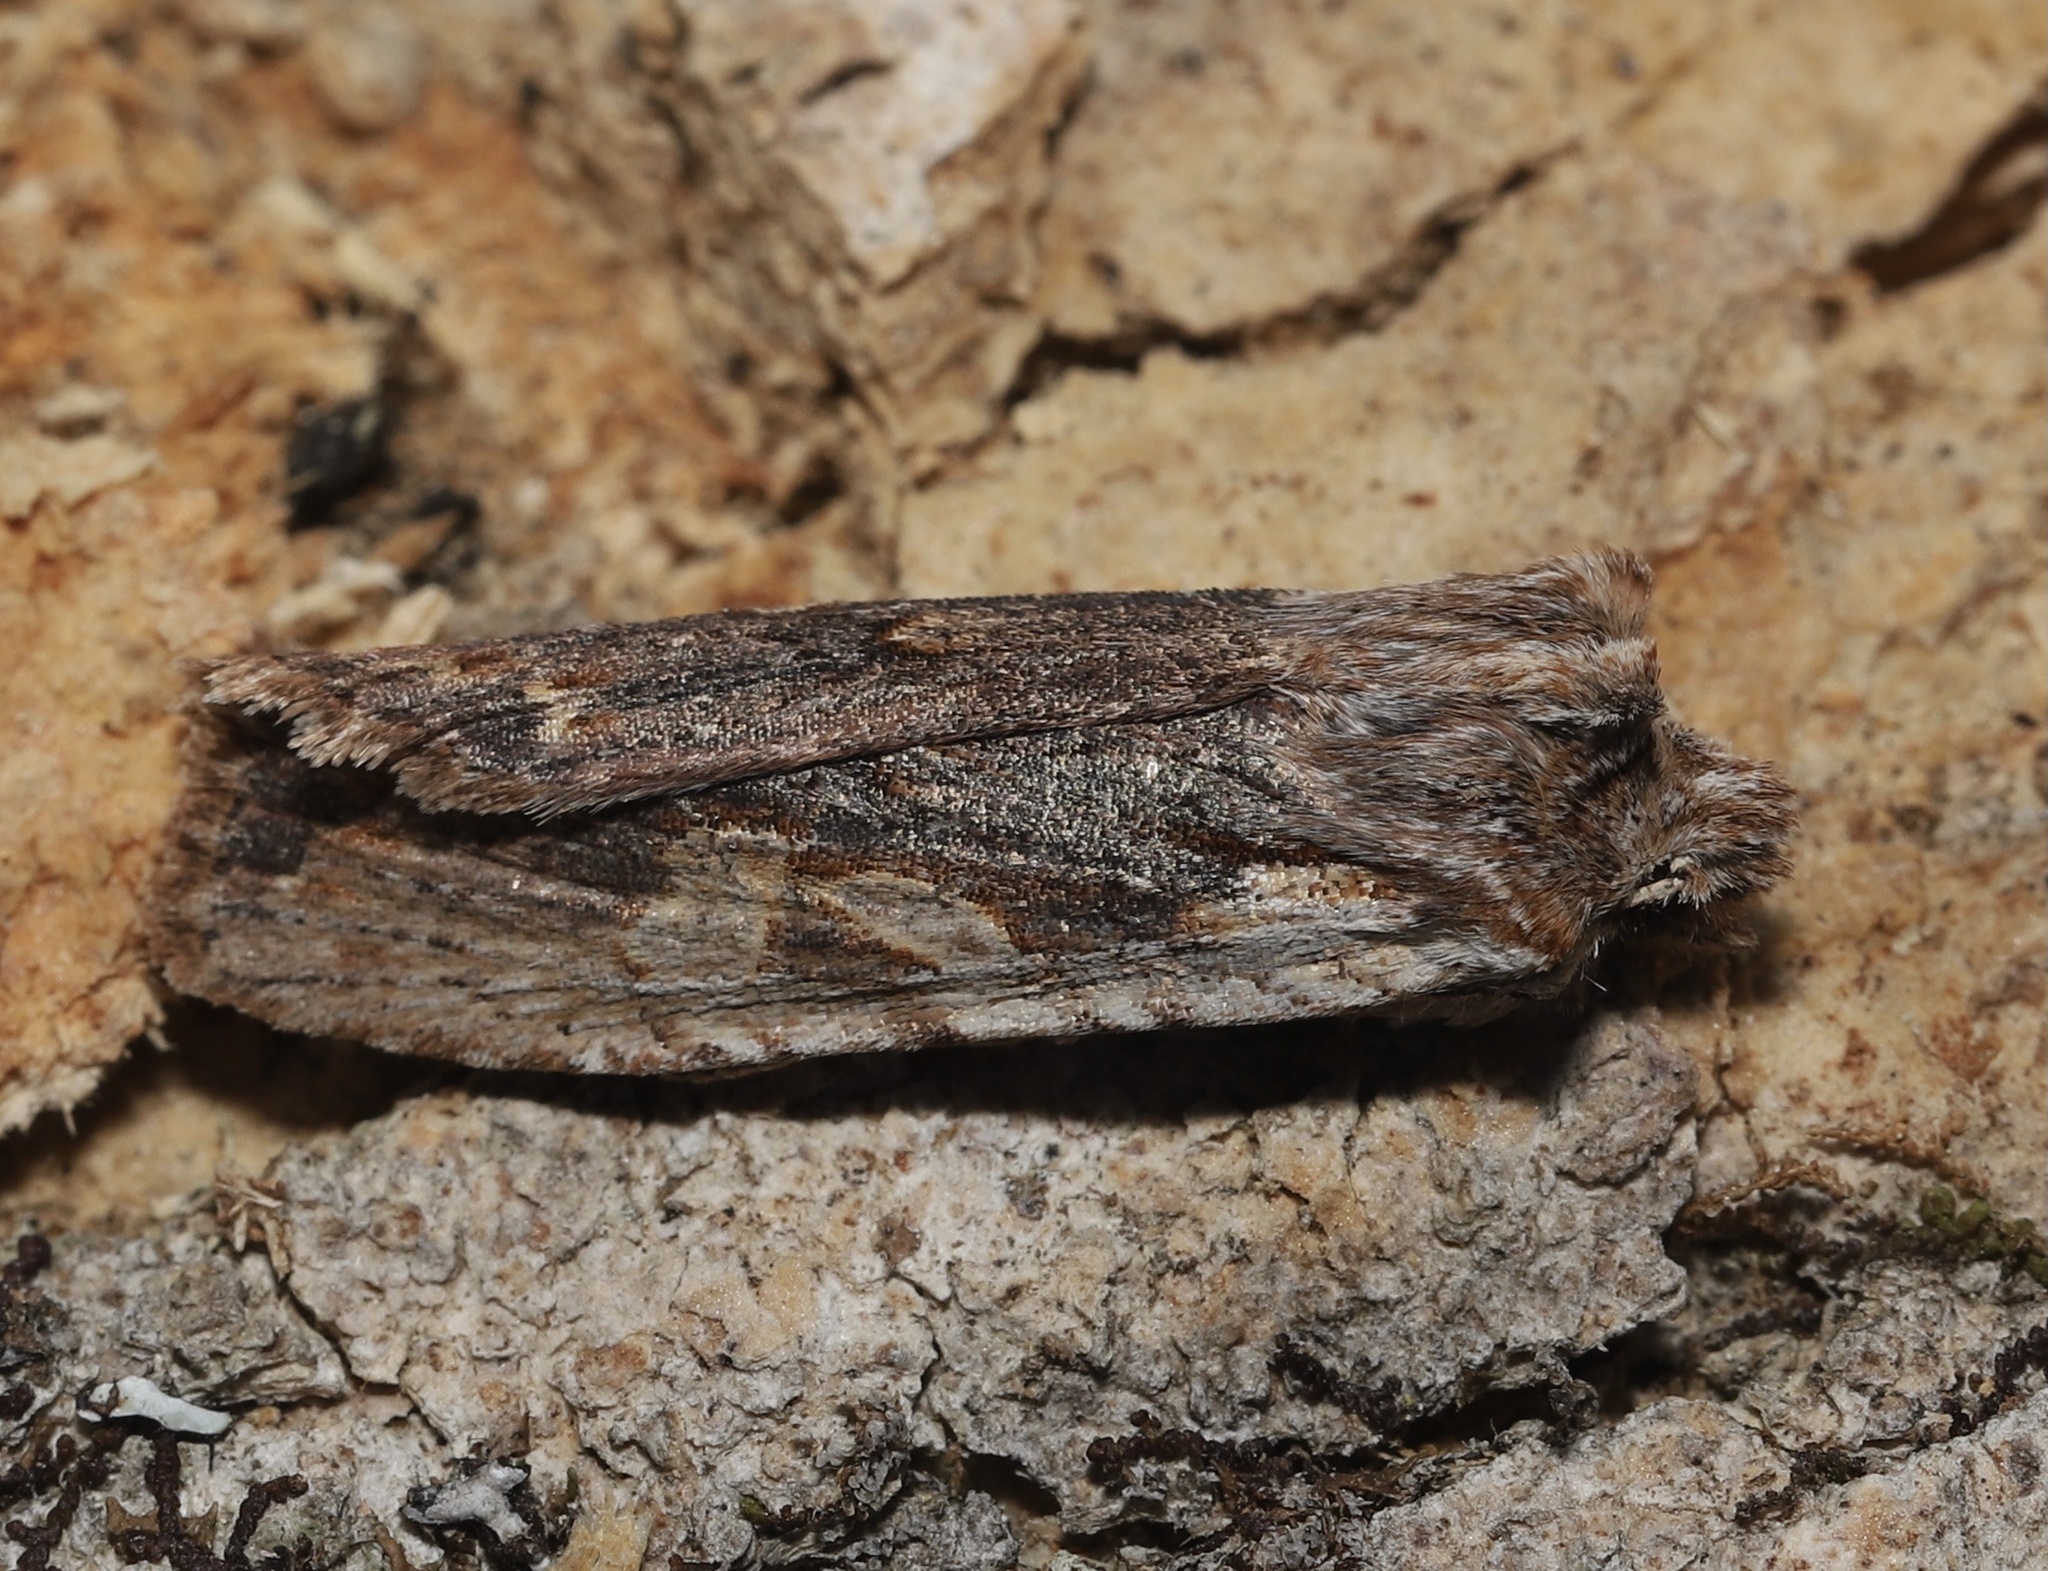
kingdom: Animalia
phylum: Arthropoda
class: Insecta
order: Lepidoptera
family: Noctuidae
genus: Lithophane
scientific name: Lithophane petulca
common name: Wanton pinion
